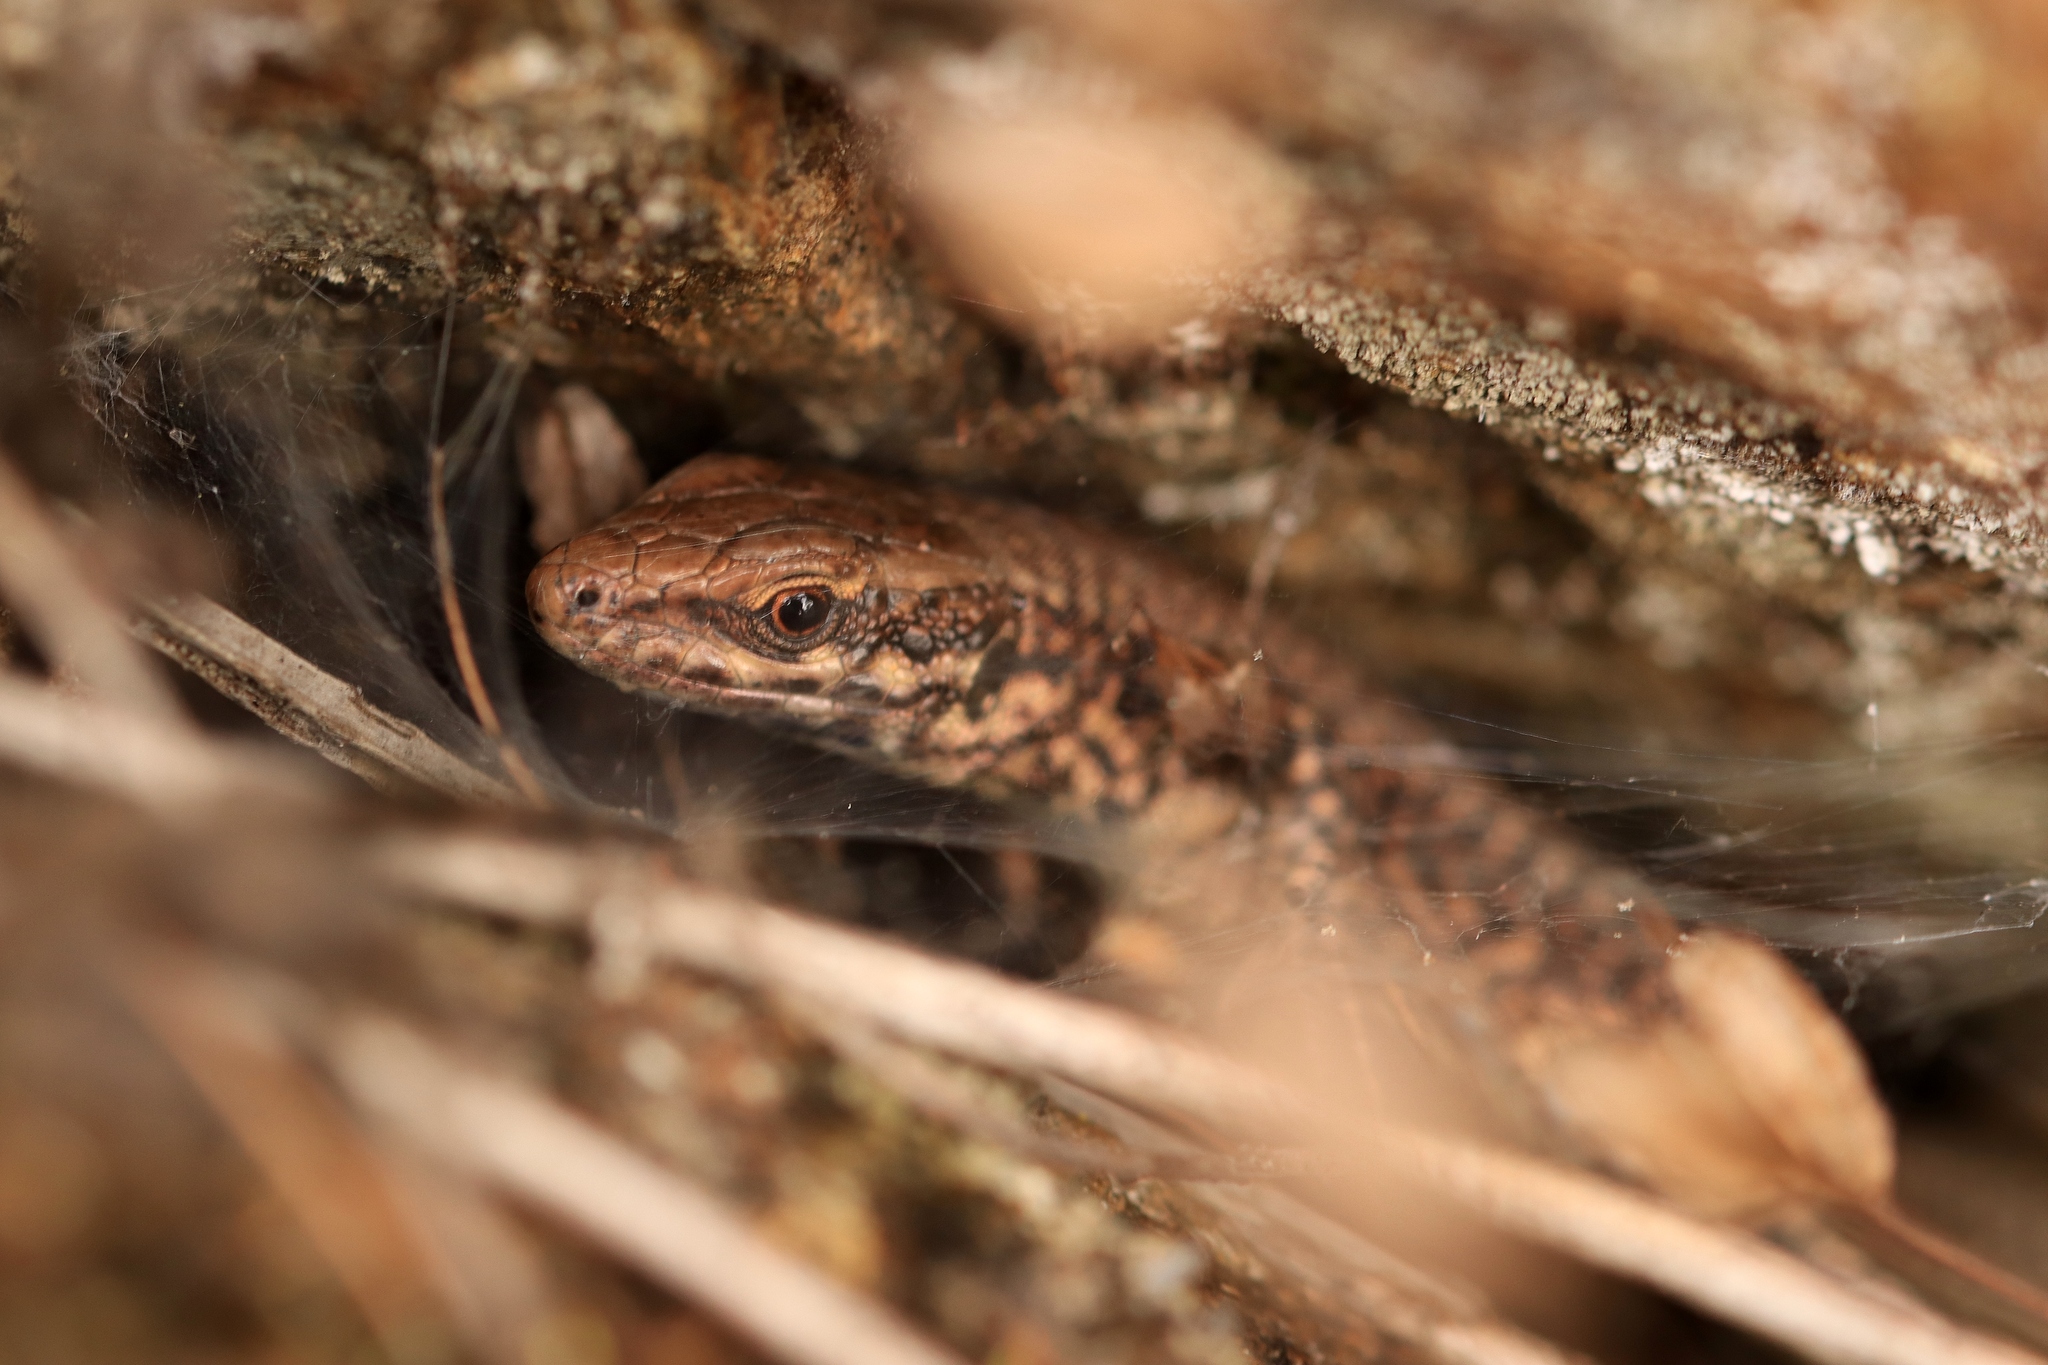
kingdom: Animalia
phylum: Chordata
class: Squamata
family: Lacertidae
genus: Podarcis
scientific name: Podarcis muralis
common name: Common wall lizard
